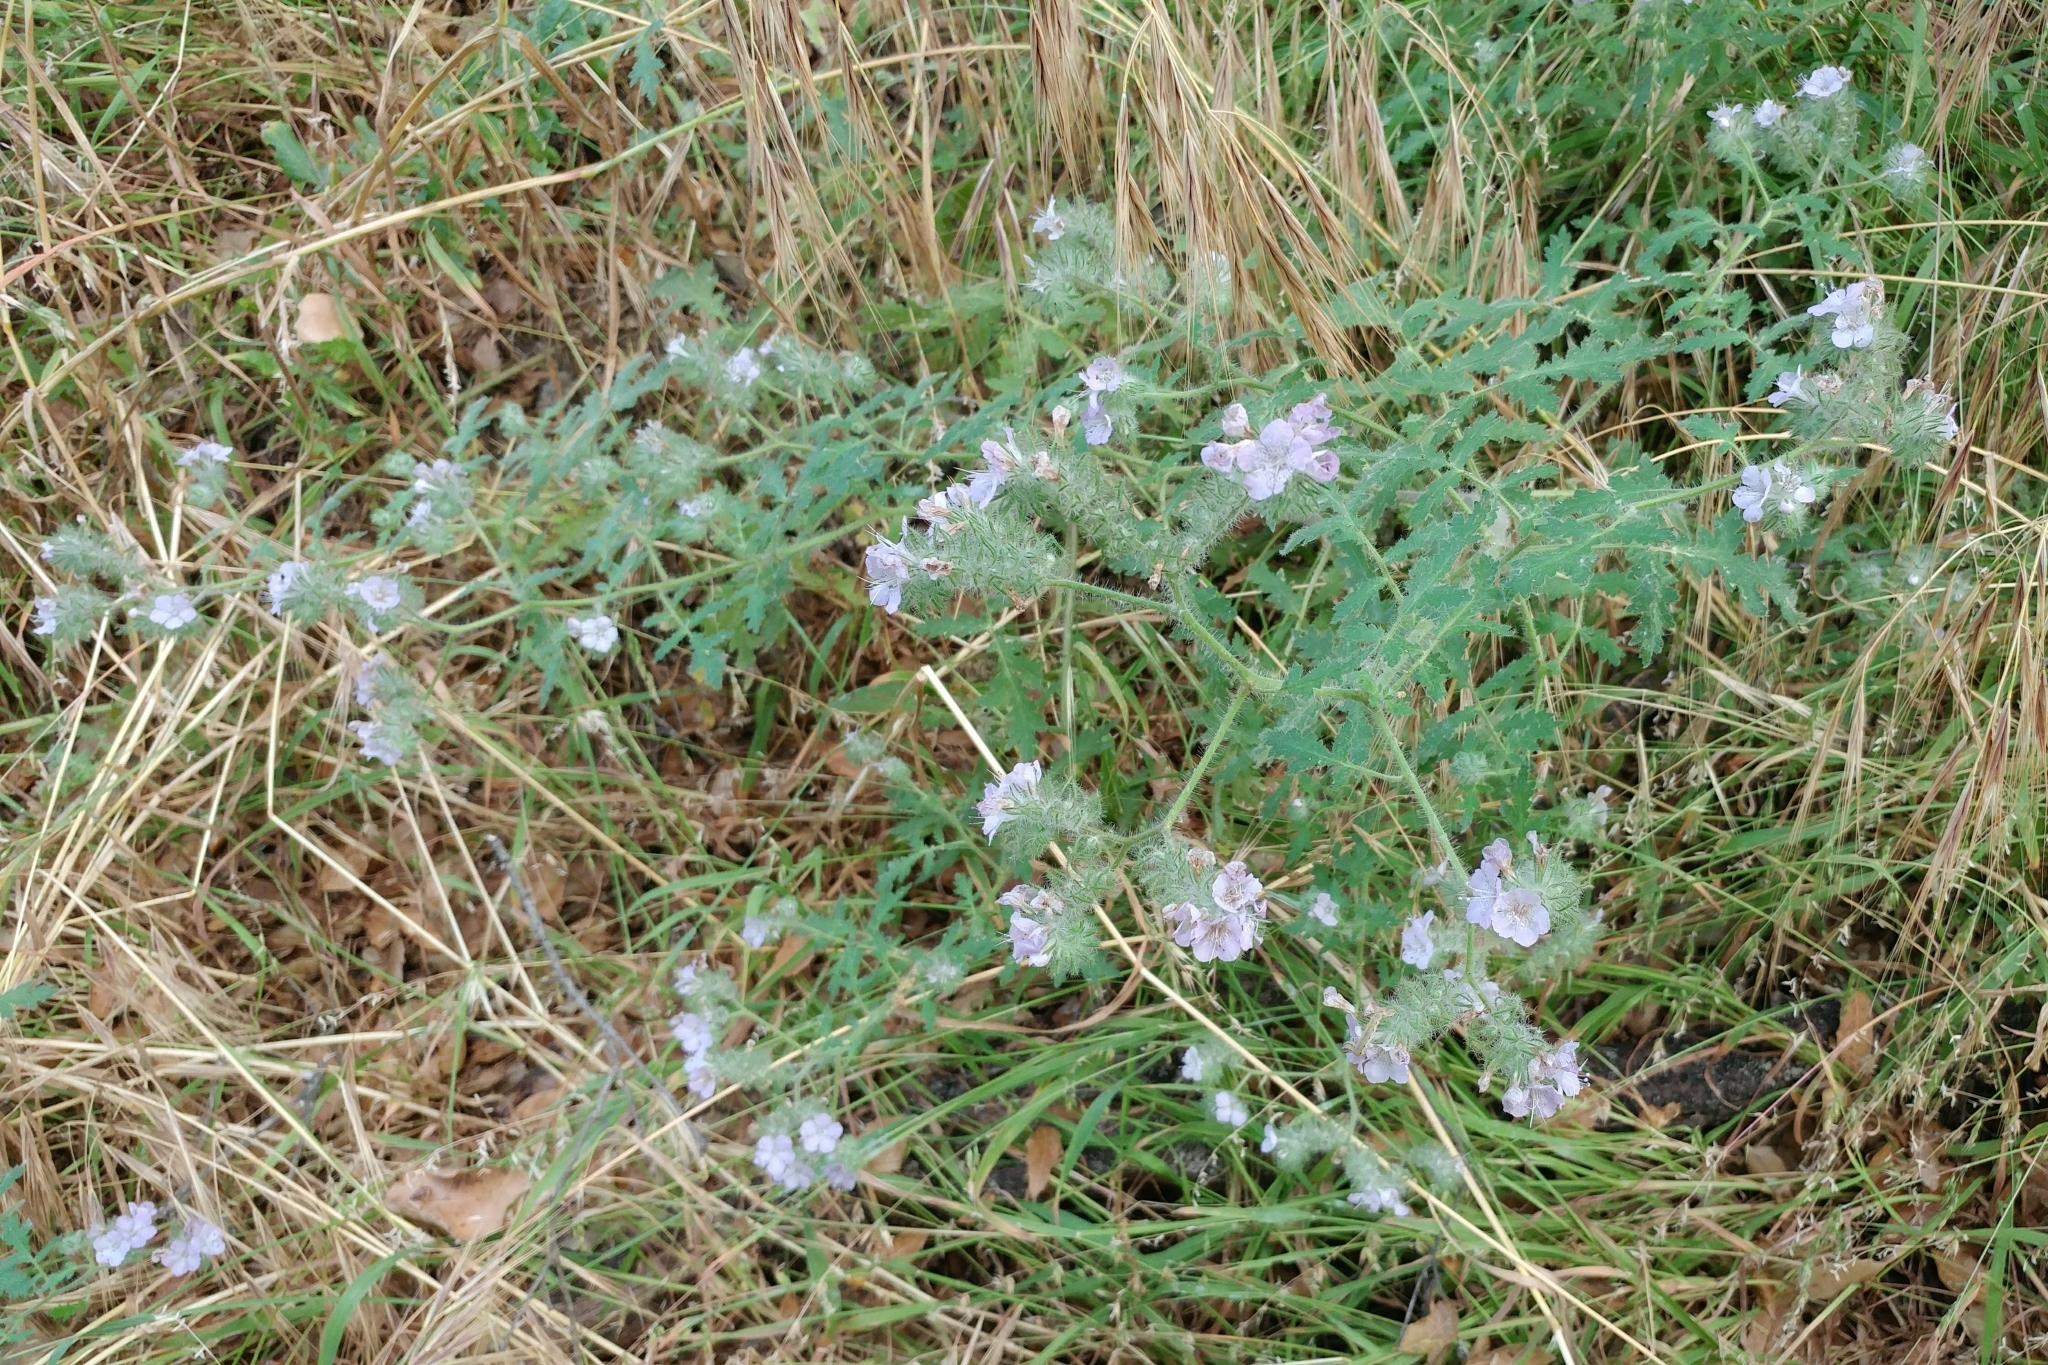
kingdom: Plantae
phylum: Tracheophyta
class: Magnoliopsida
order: Boraginales
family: Hydrophyllaceae
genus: Phacelia
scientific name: Phacelia cicutaria
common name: Caterpillar phacelia
